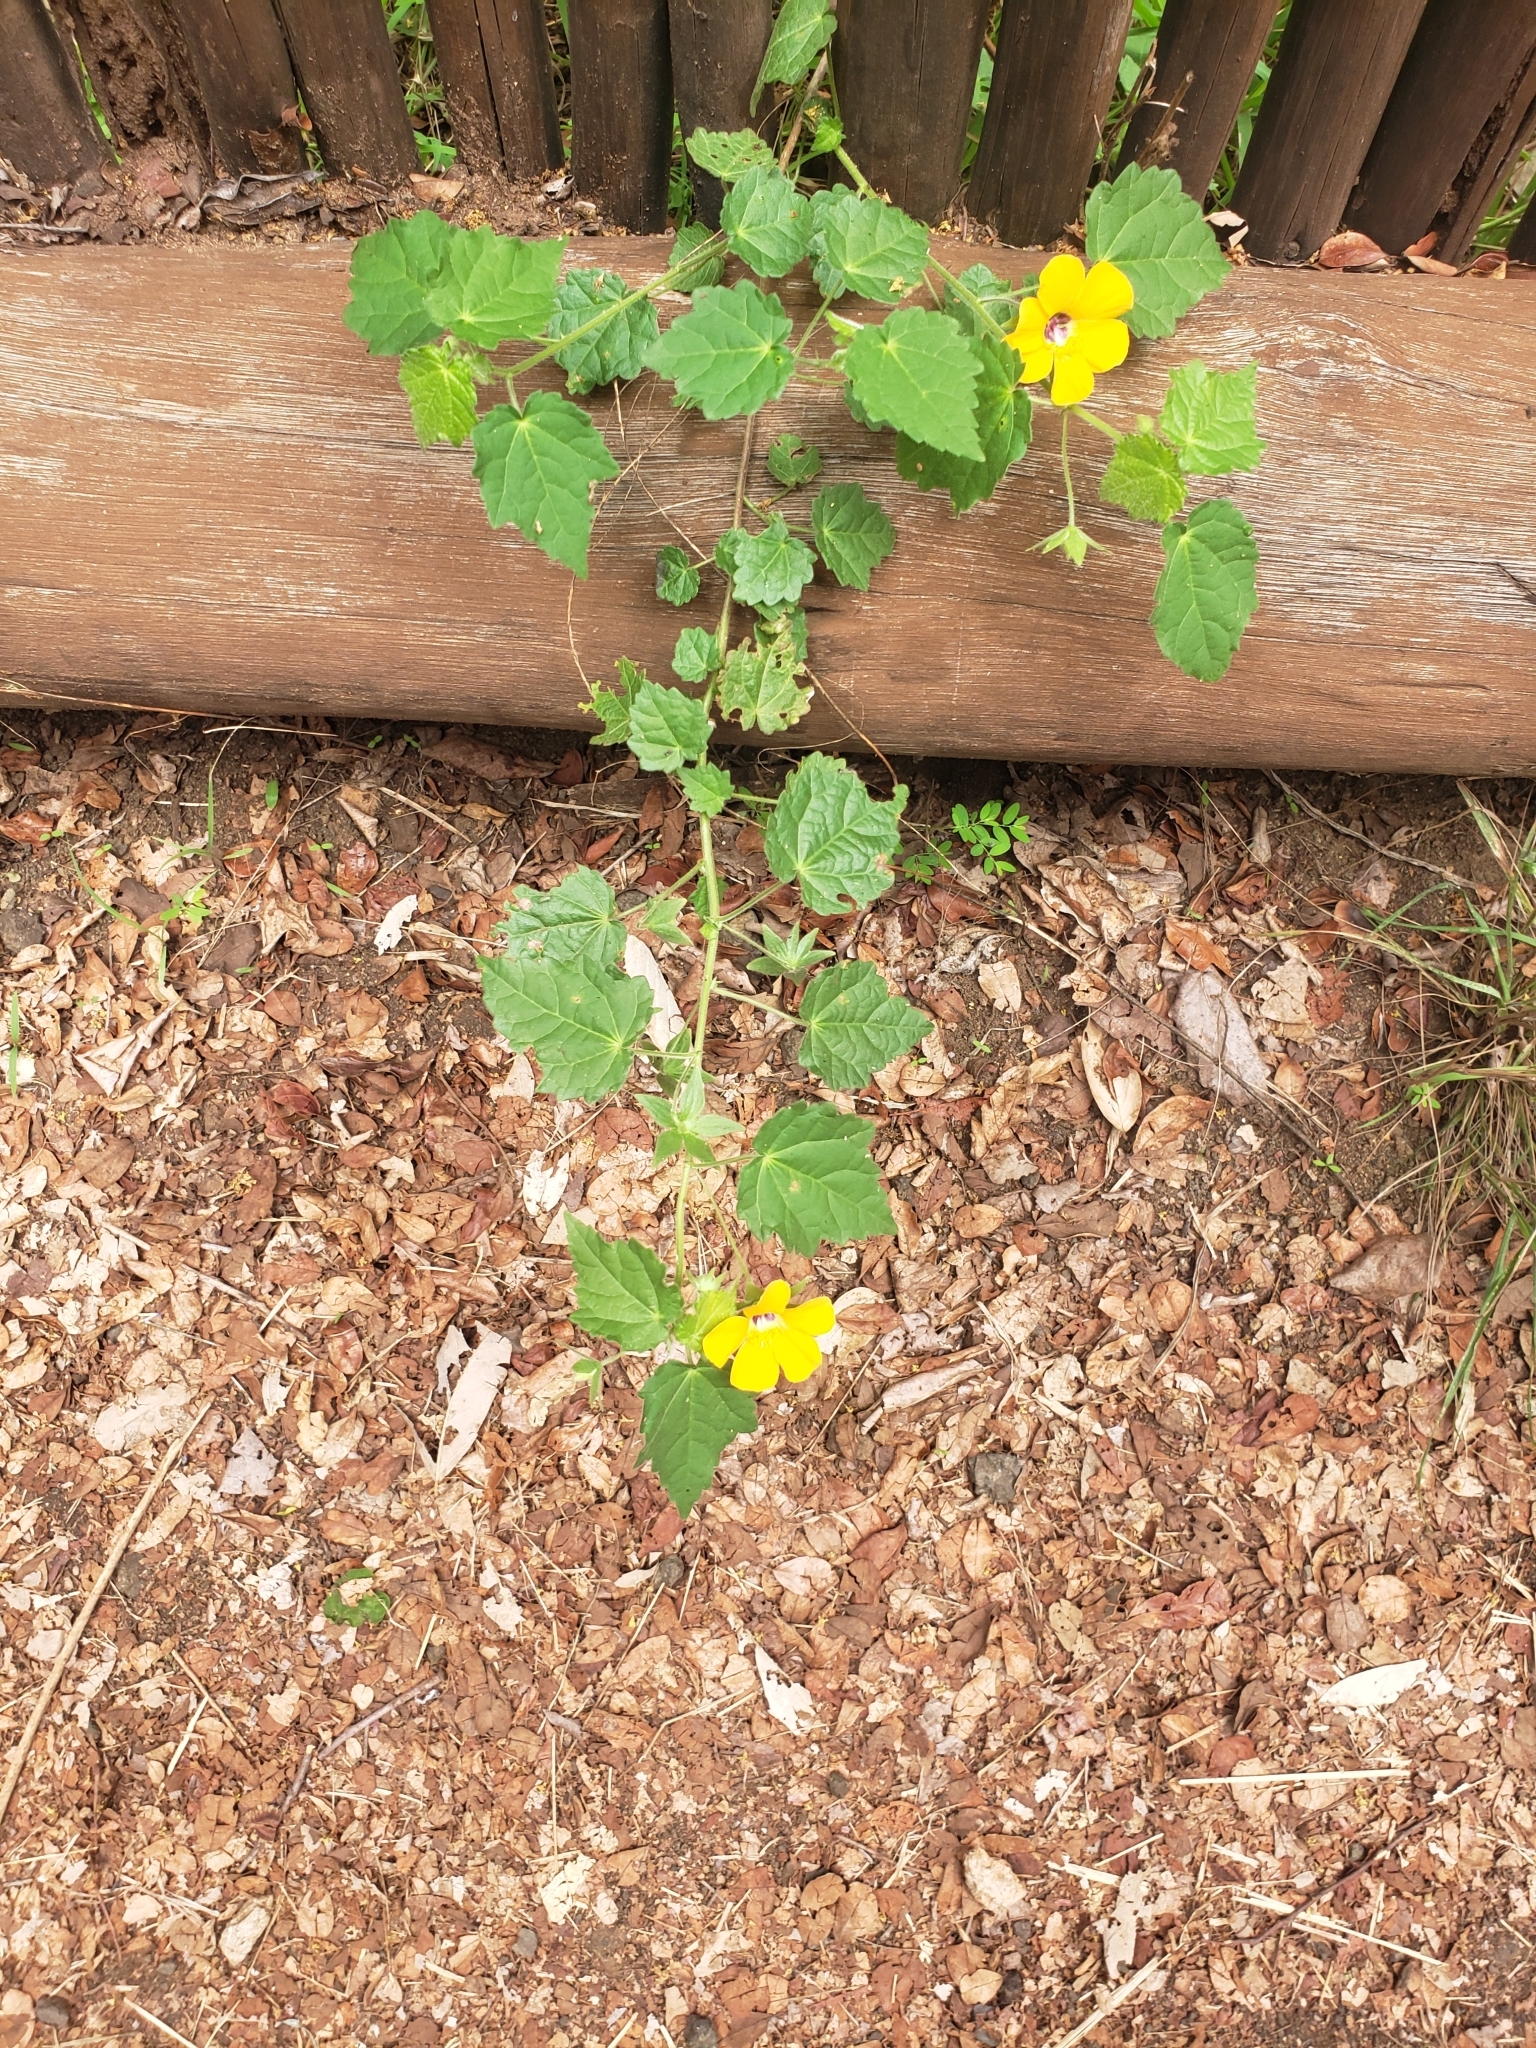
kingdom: Plantae
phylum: Tracheophyta
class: Magnoliopsida
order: Malvales
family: Malvaceae
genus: Pavonia
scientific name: Pavonia burchellii
